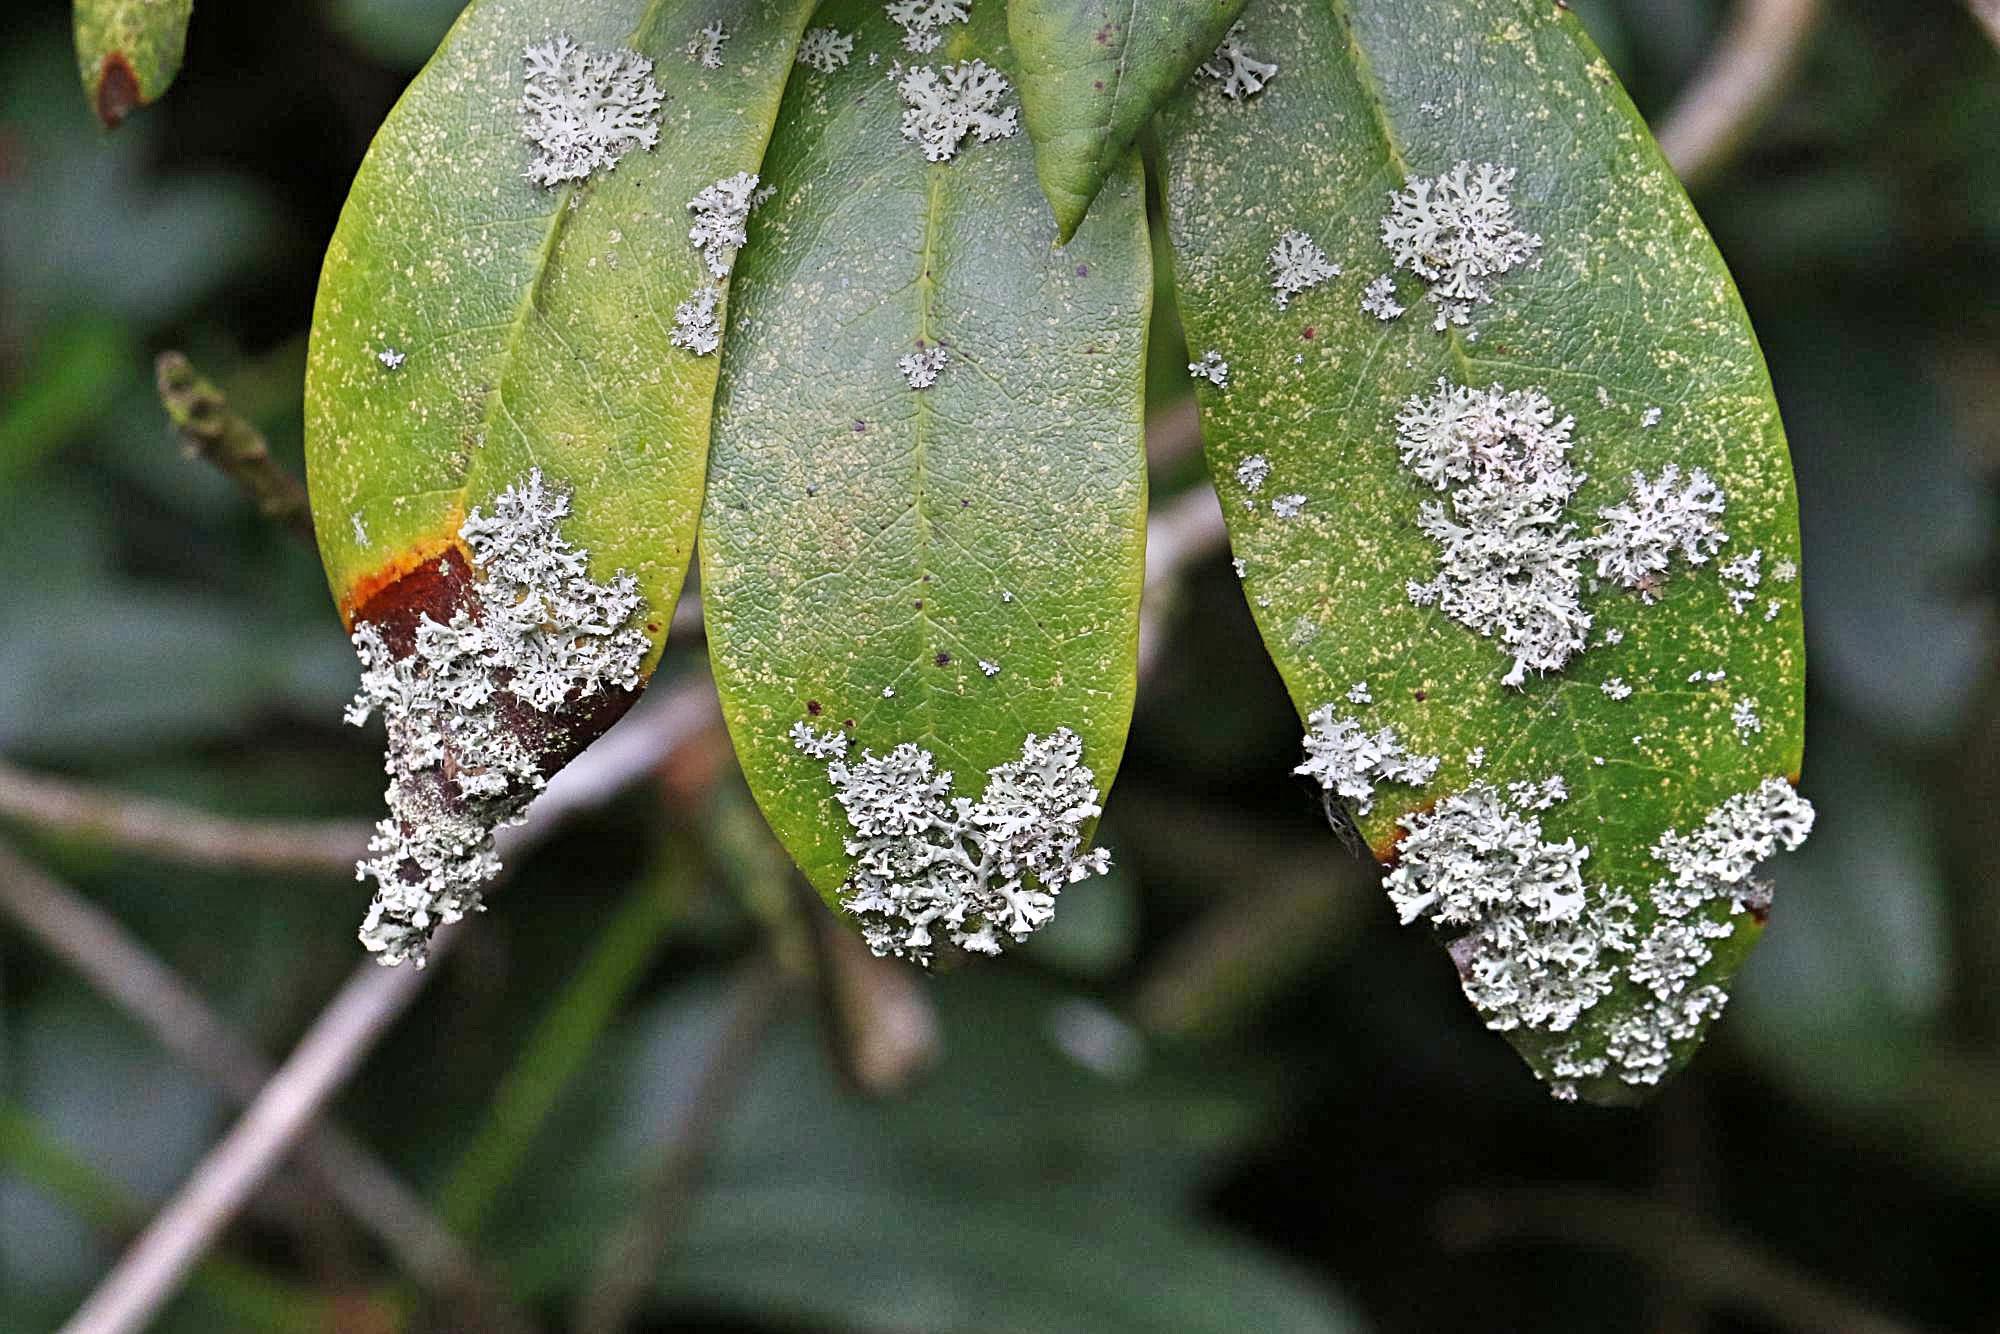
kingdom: Fungi
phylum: Ascomycota
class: Lecanoromycetes
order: Caliciales
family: Physciaceae
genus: Physcia
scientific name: Physcia tenella
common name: Fringed rosette lichen
